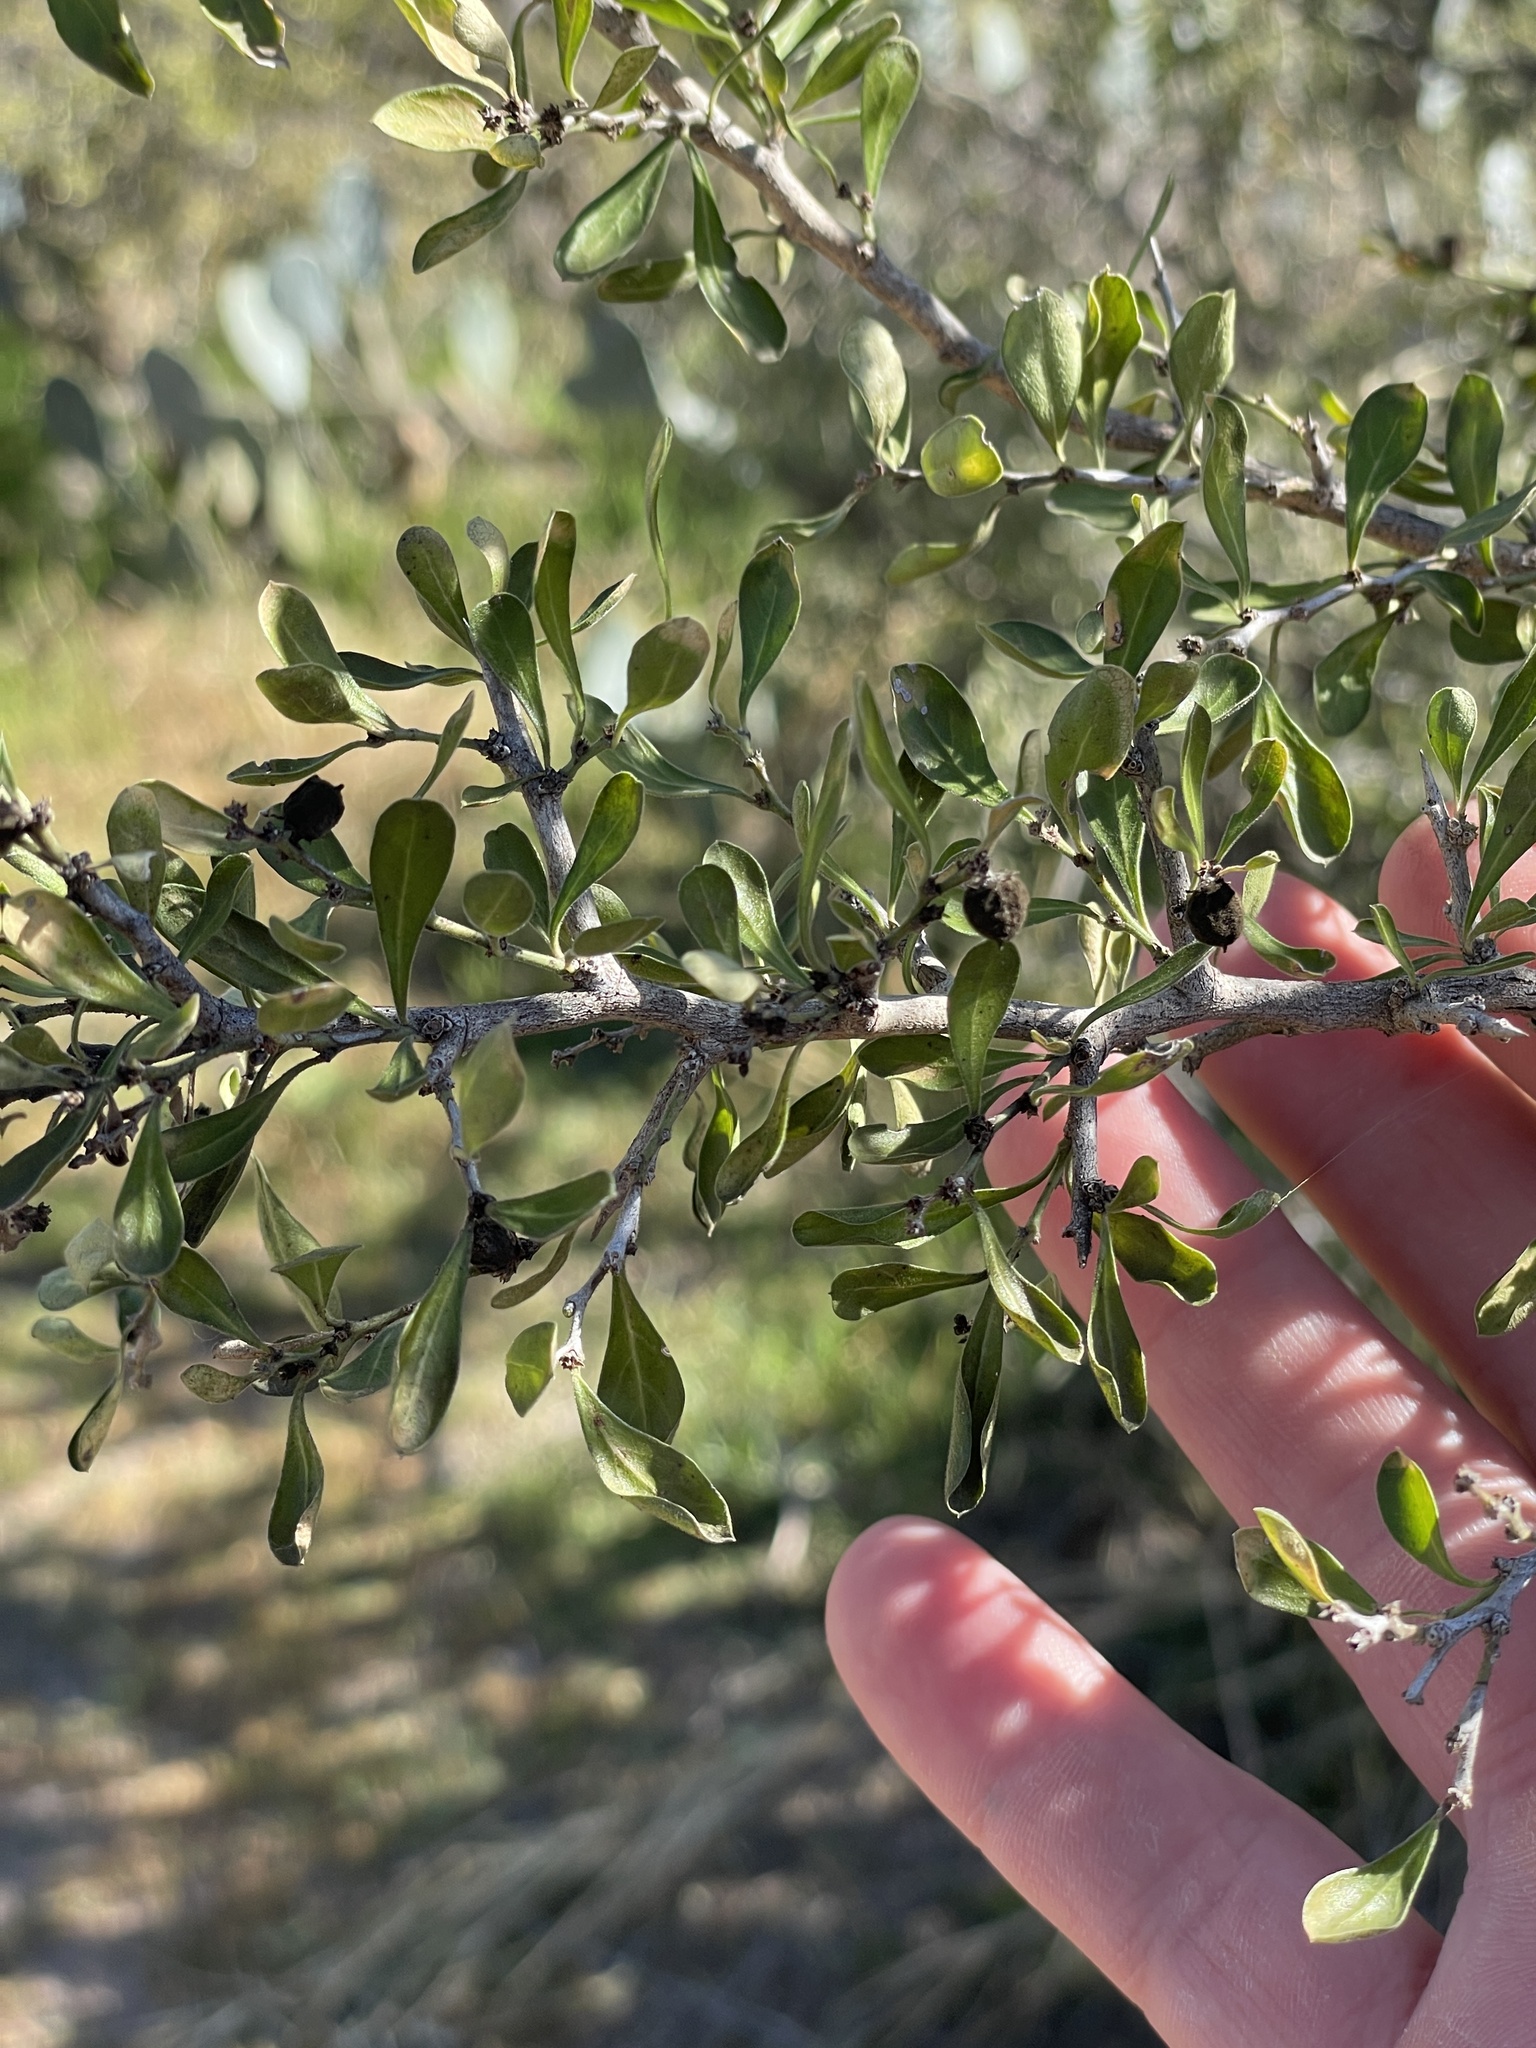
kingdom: Plantae
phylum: Tracheophyta
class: Magnoliopsida
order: Rosales
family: Rhamnaceae
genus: Condalia
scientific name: Condalia hookeri
